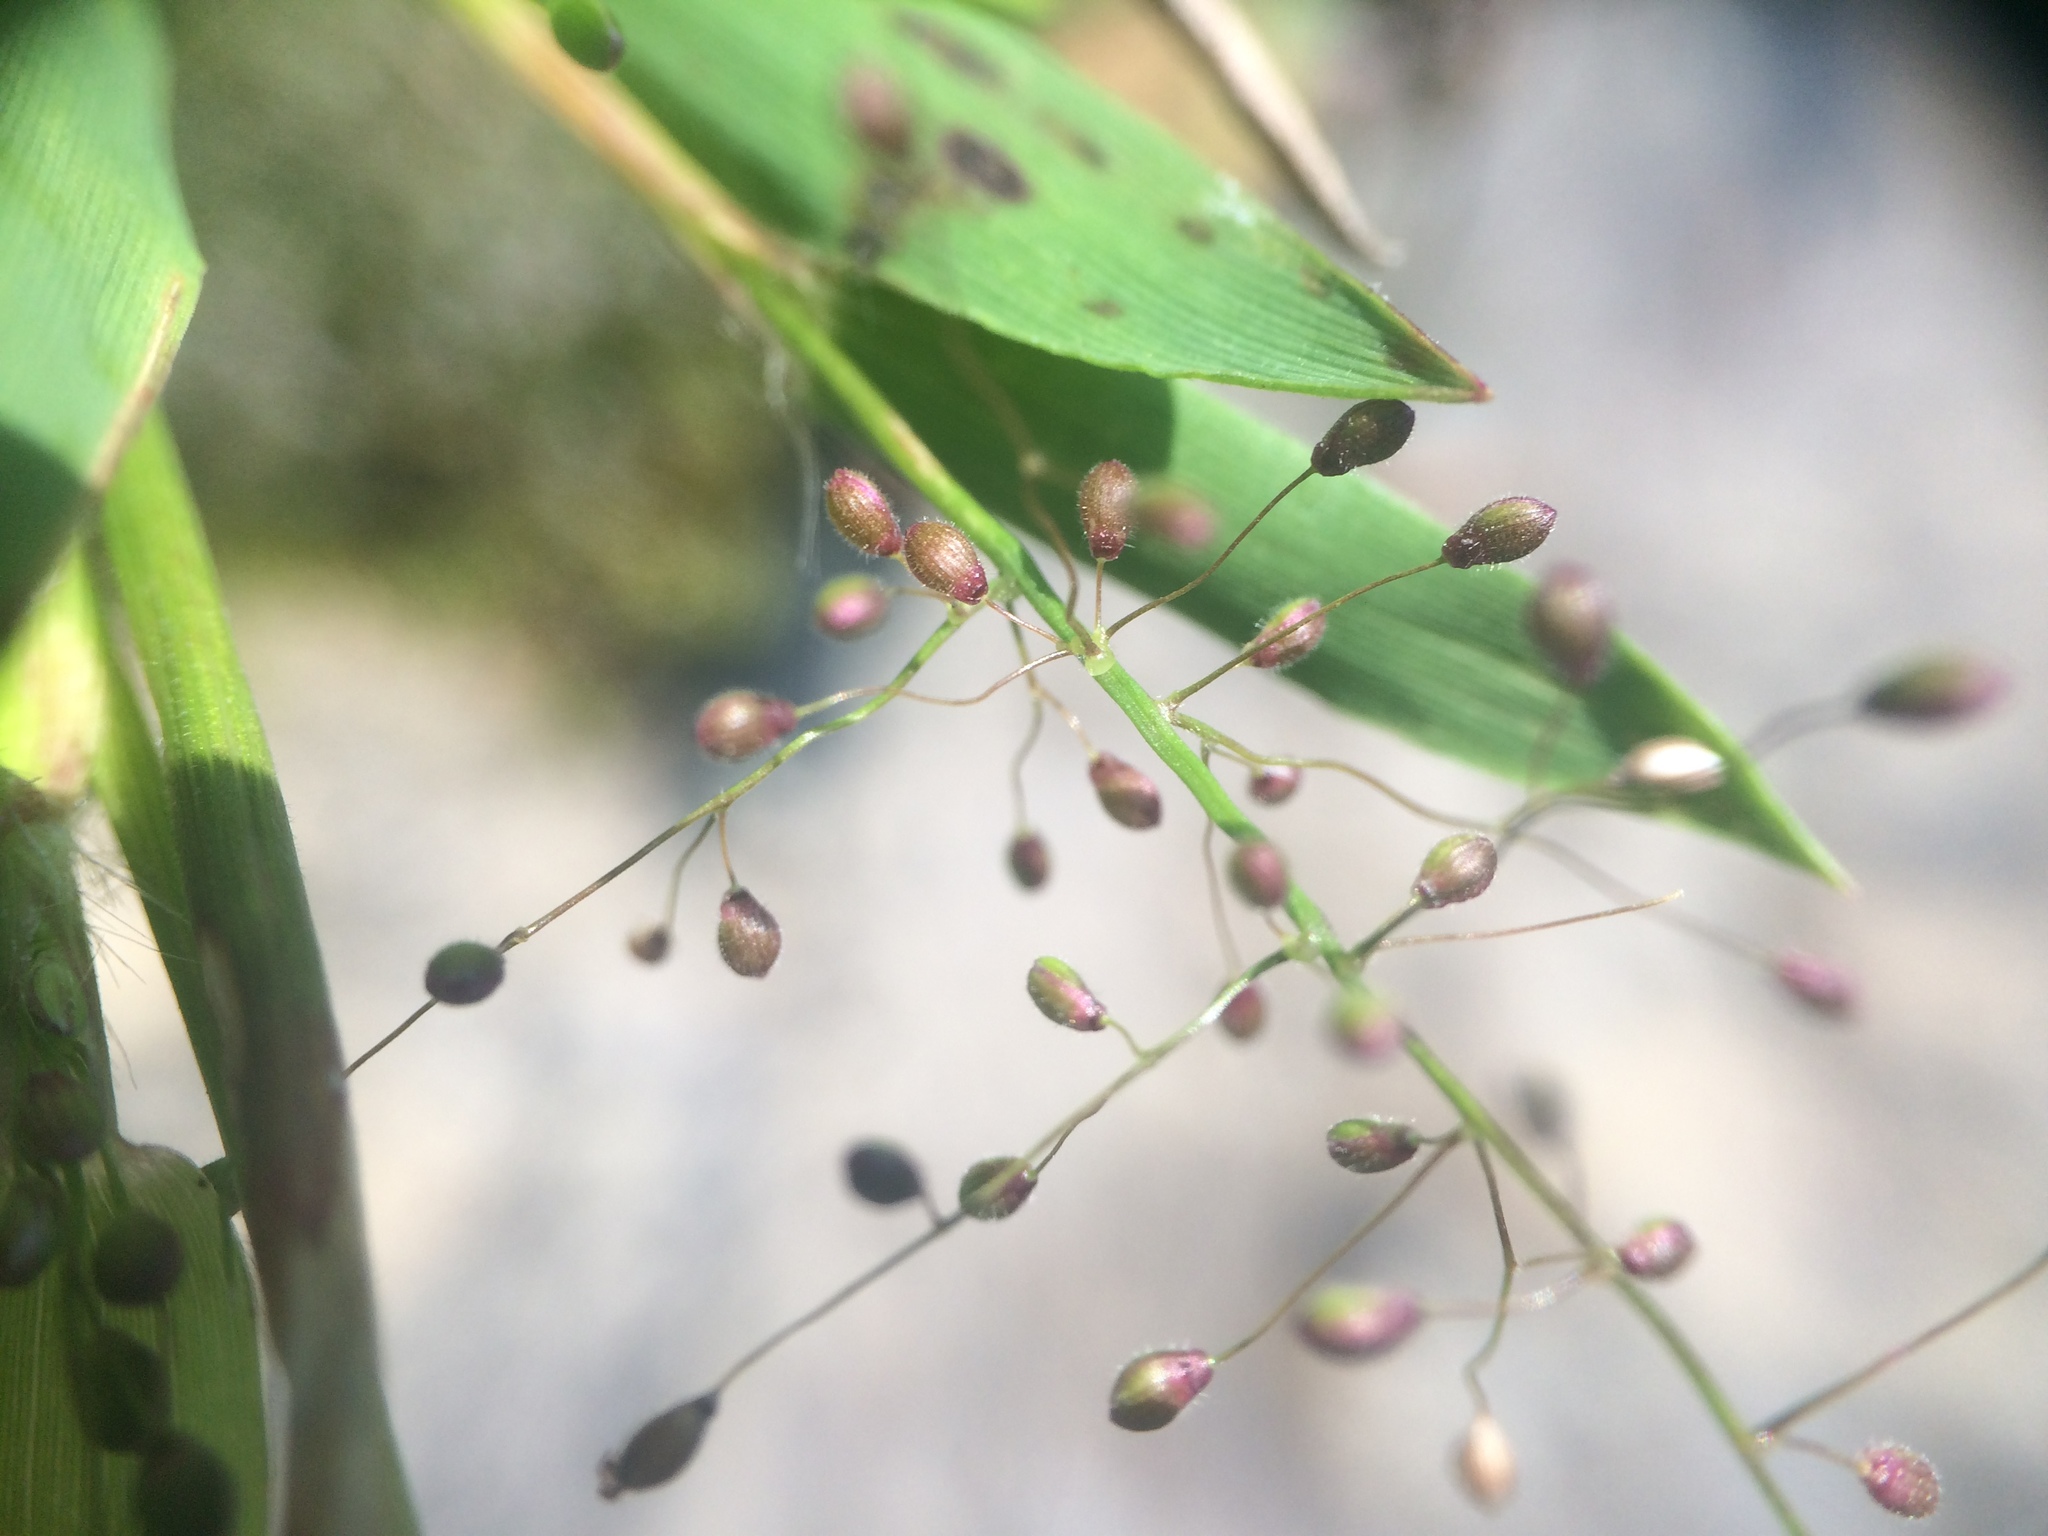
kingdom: Plantae
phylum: Tracheophyta
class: Liliopsida
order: Poales
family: Poaceae
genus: Dichanthelium
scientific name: Dichanthelium lindheimeri
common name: Lindheimer's panicgrass
